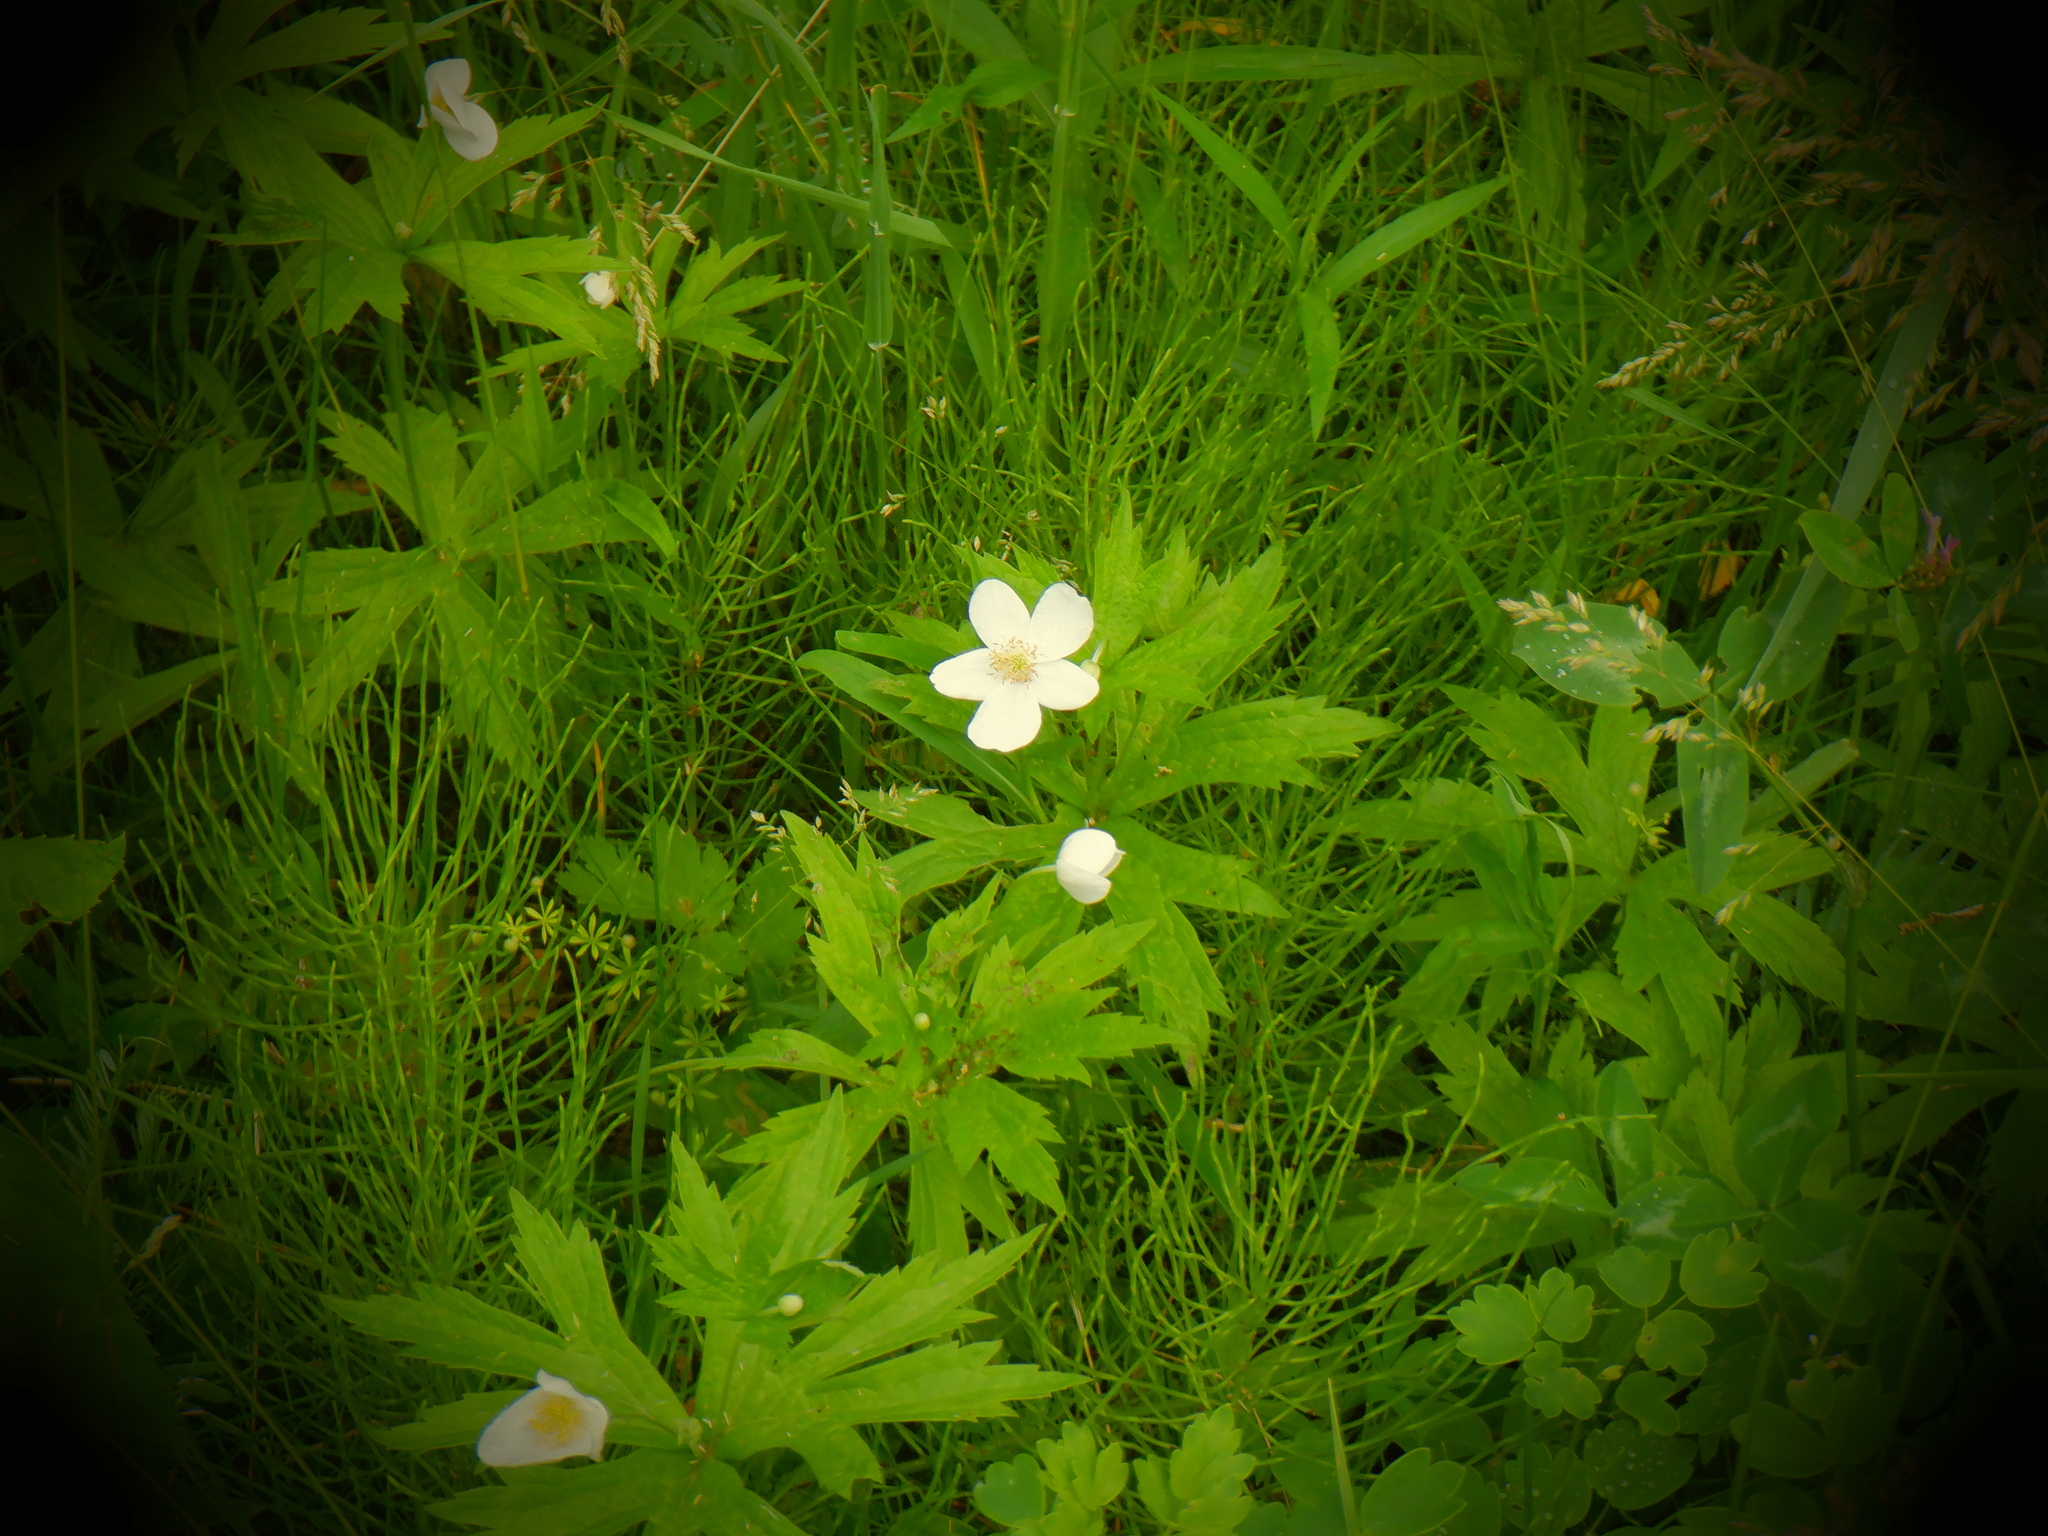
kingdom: Plantae
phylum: Tracheophyta
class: Magnoliopsida
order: Ranunculales
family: Ranunculaceae
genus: Anemonastrum
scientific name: Anemonastrum canadense
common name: Canada anemone
